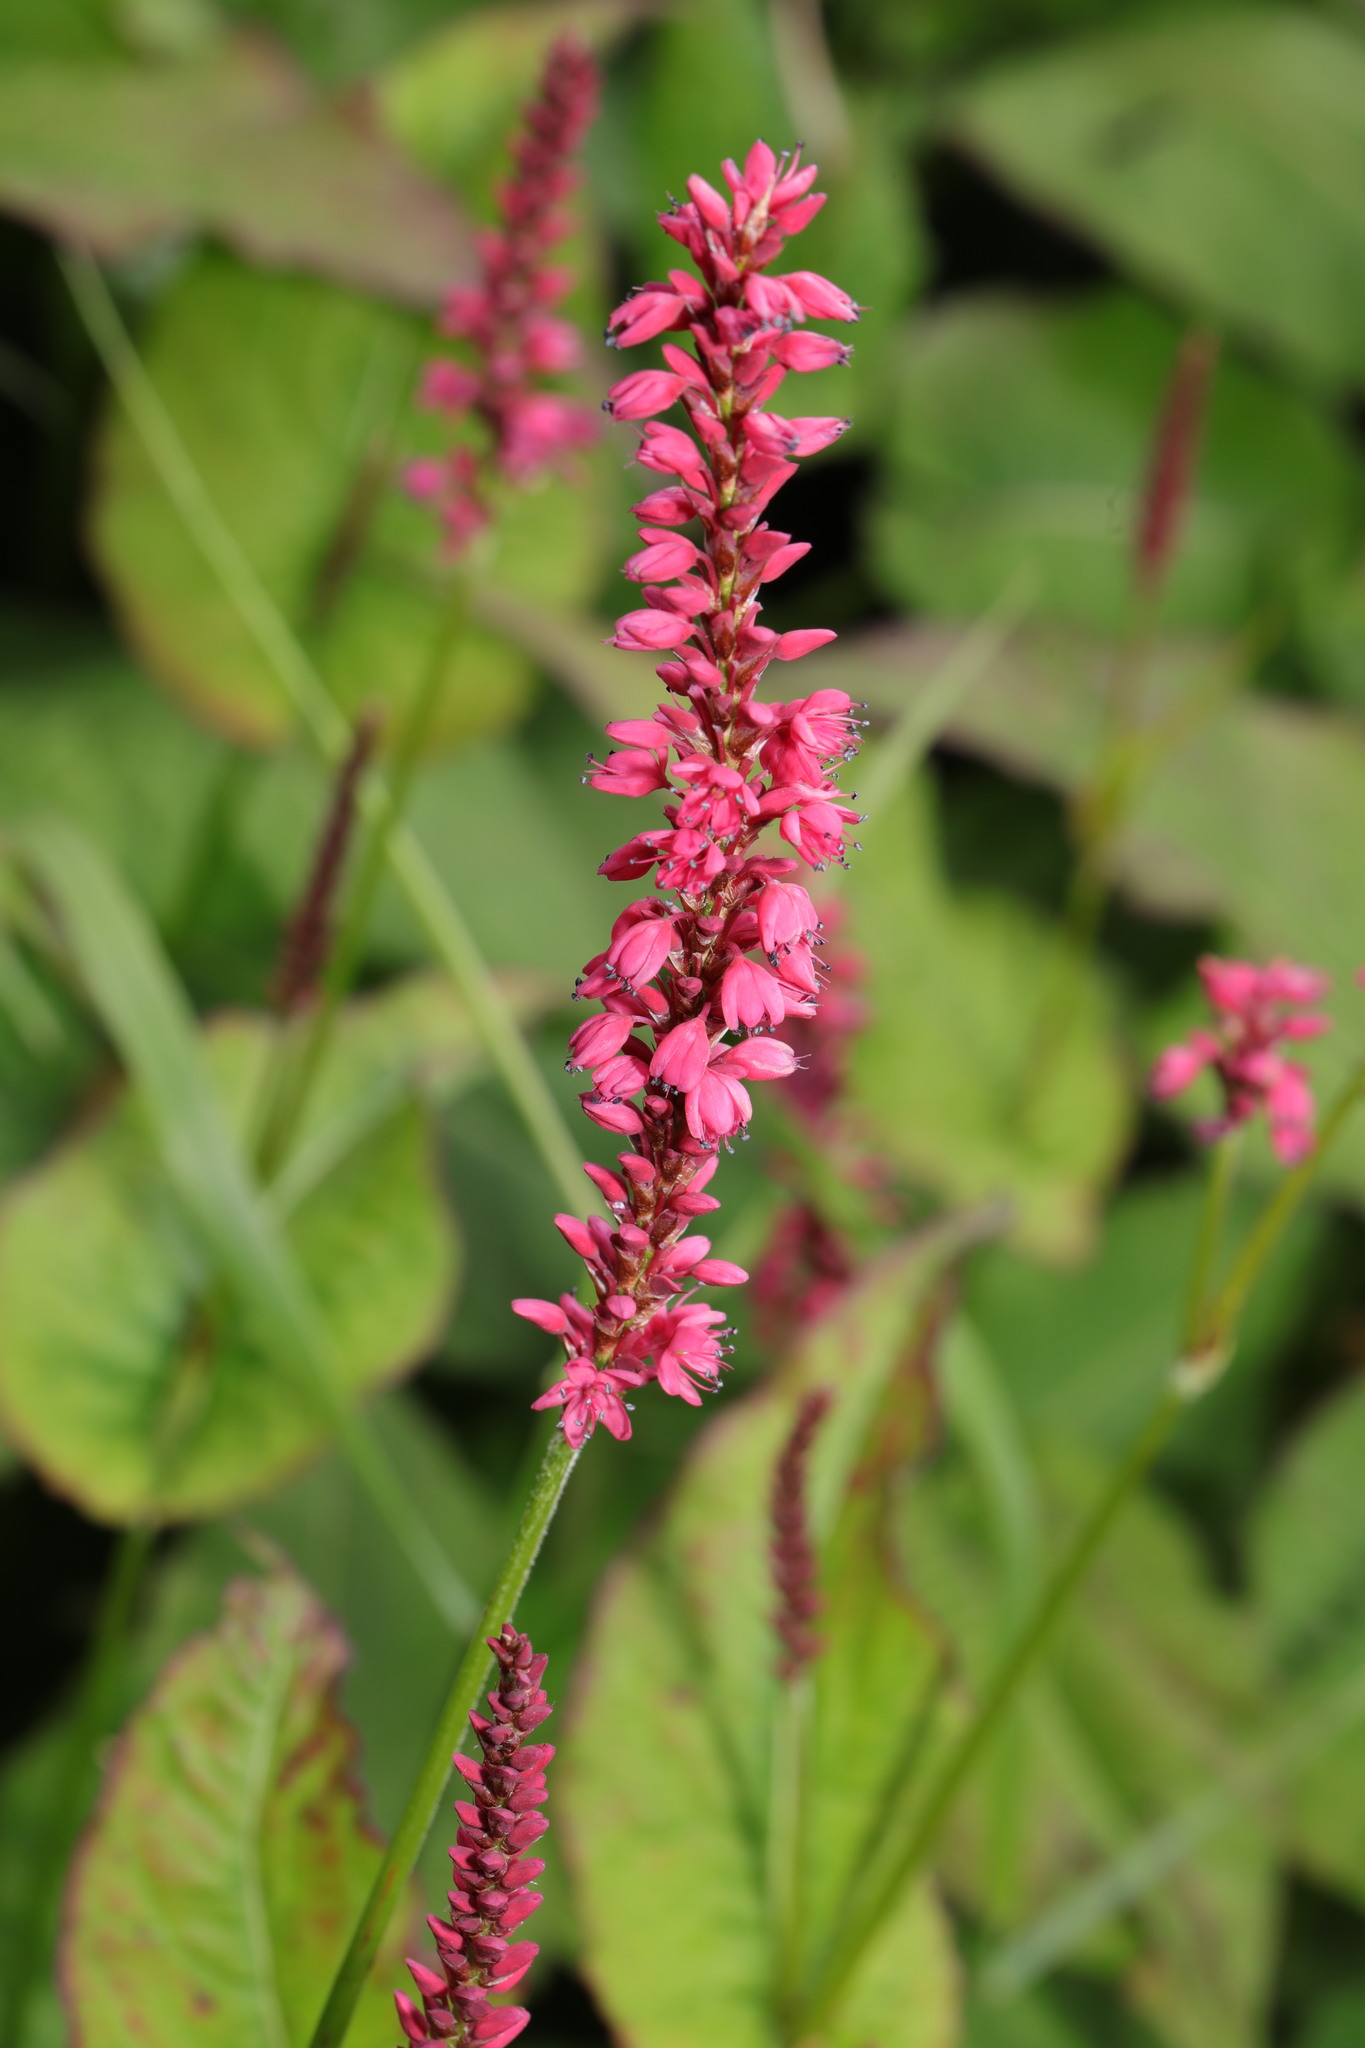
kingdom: Plantae
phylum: Tracheophyta
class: Magnoliopsida
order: Caryophyllales
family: Polygonaceae
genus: Bistorta
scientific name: Bistorta amplexicaulis
